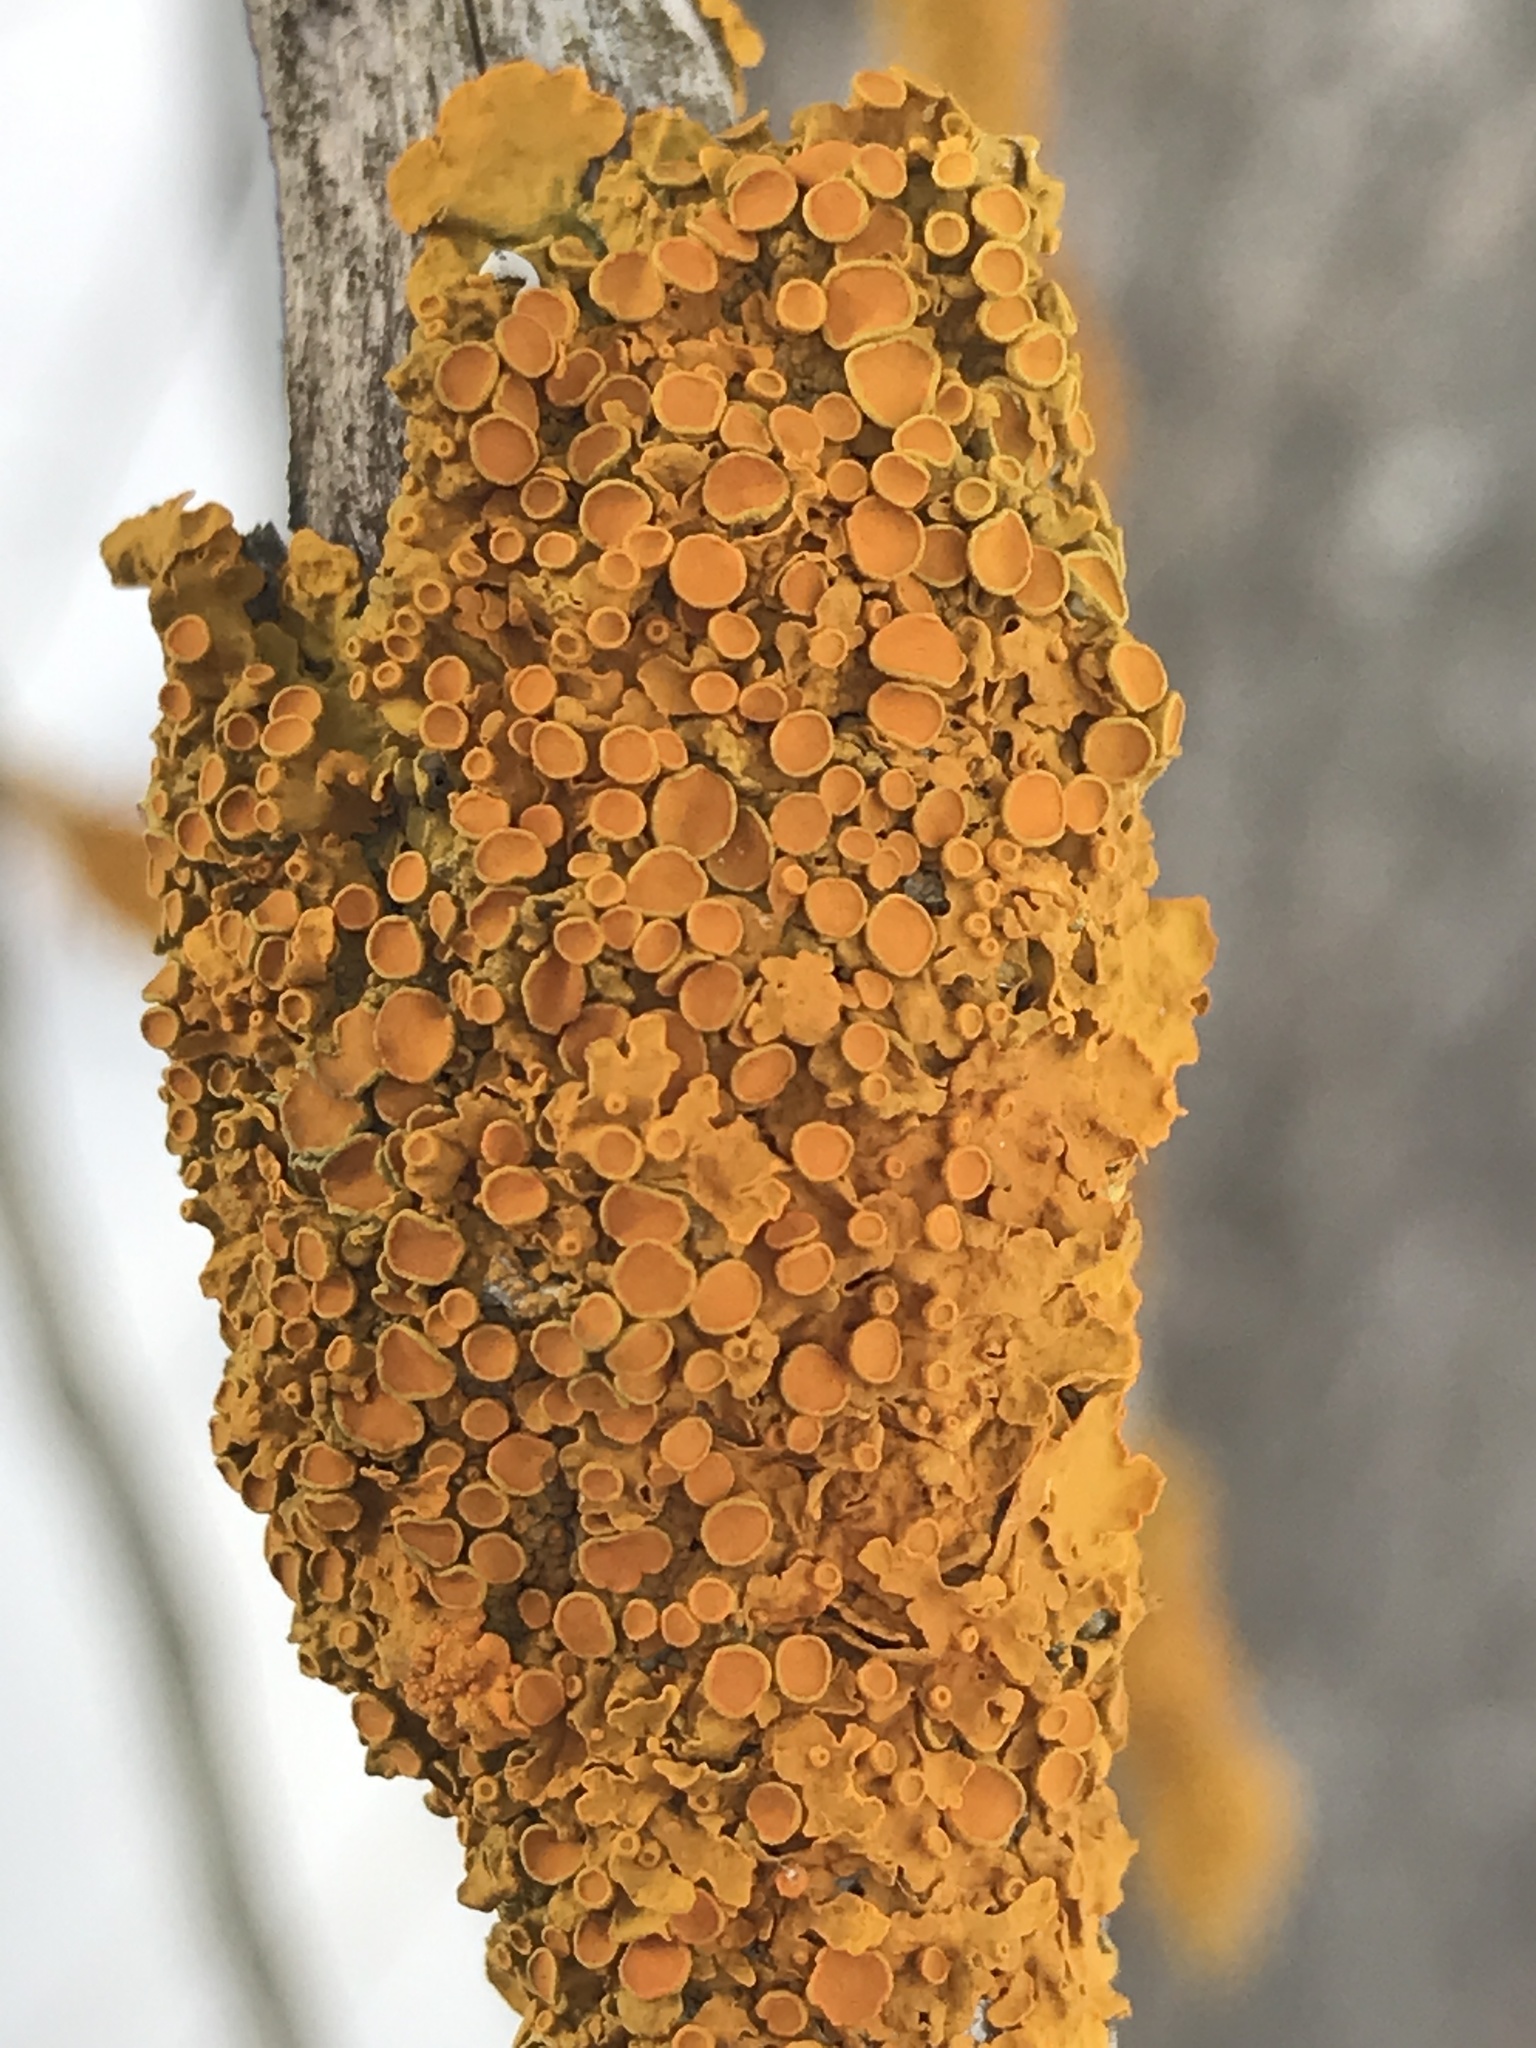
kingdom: Fungi
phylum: Ascomycota
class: Lecanoromycetes
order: Teloschistales
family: Teloschistaceae
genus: Xanthoria
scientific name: Xanthoria parietina
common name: Common orange lichen
